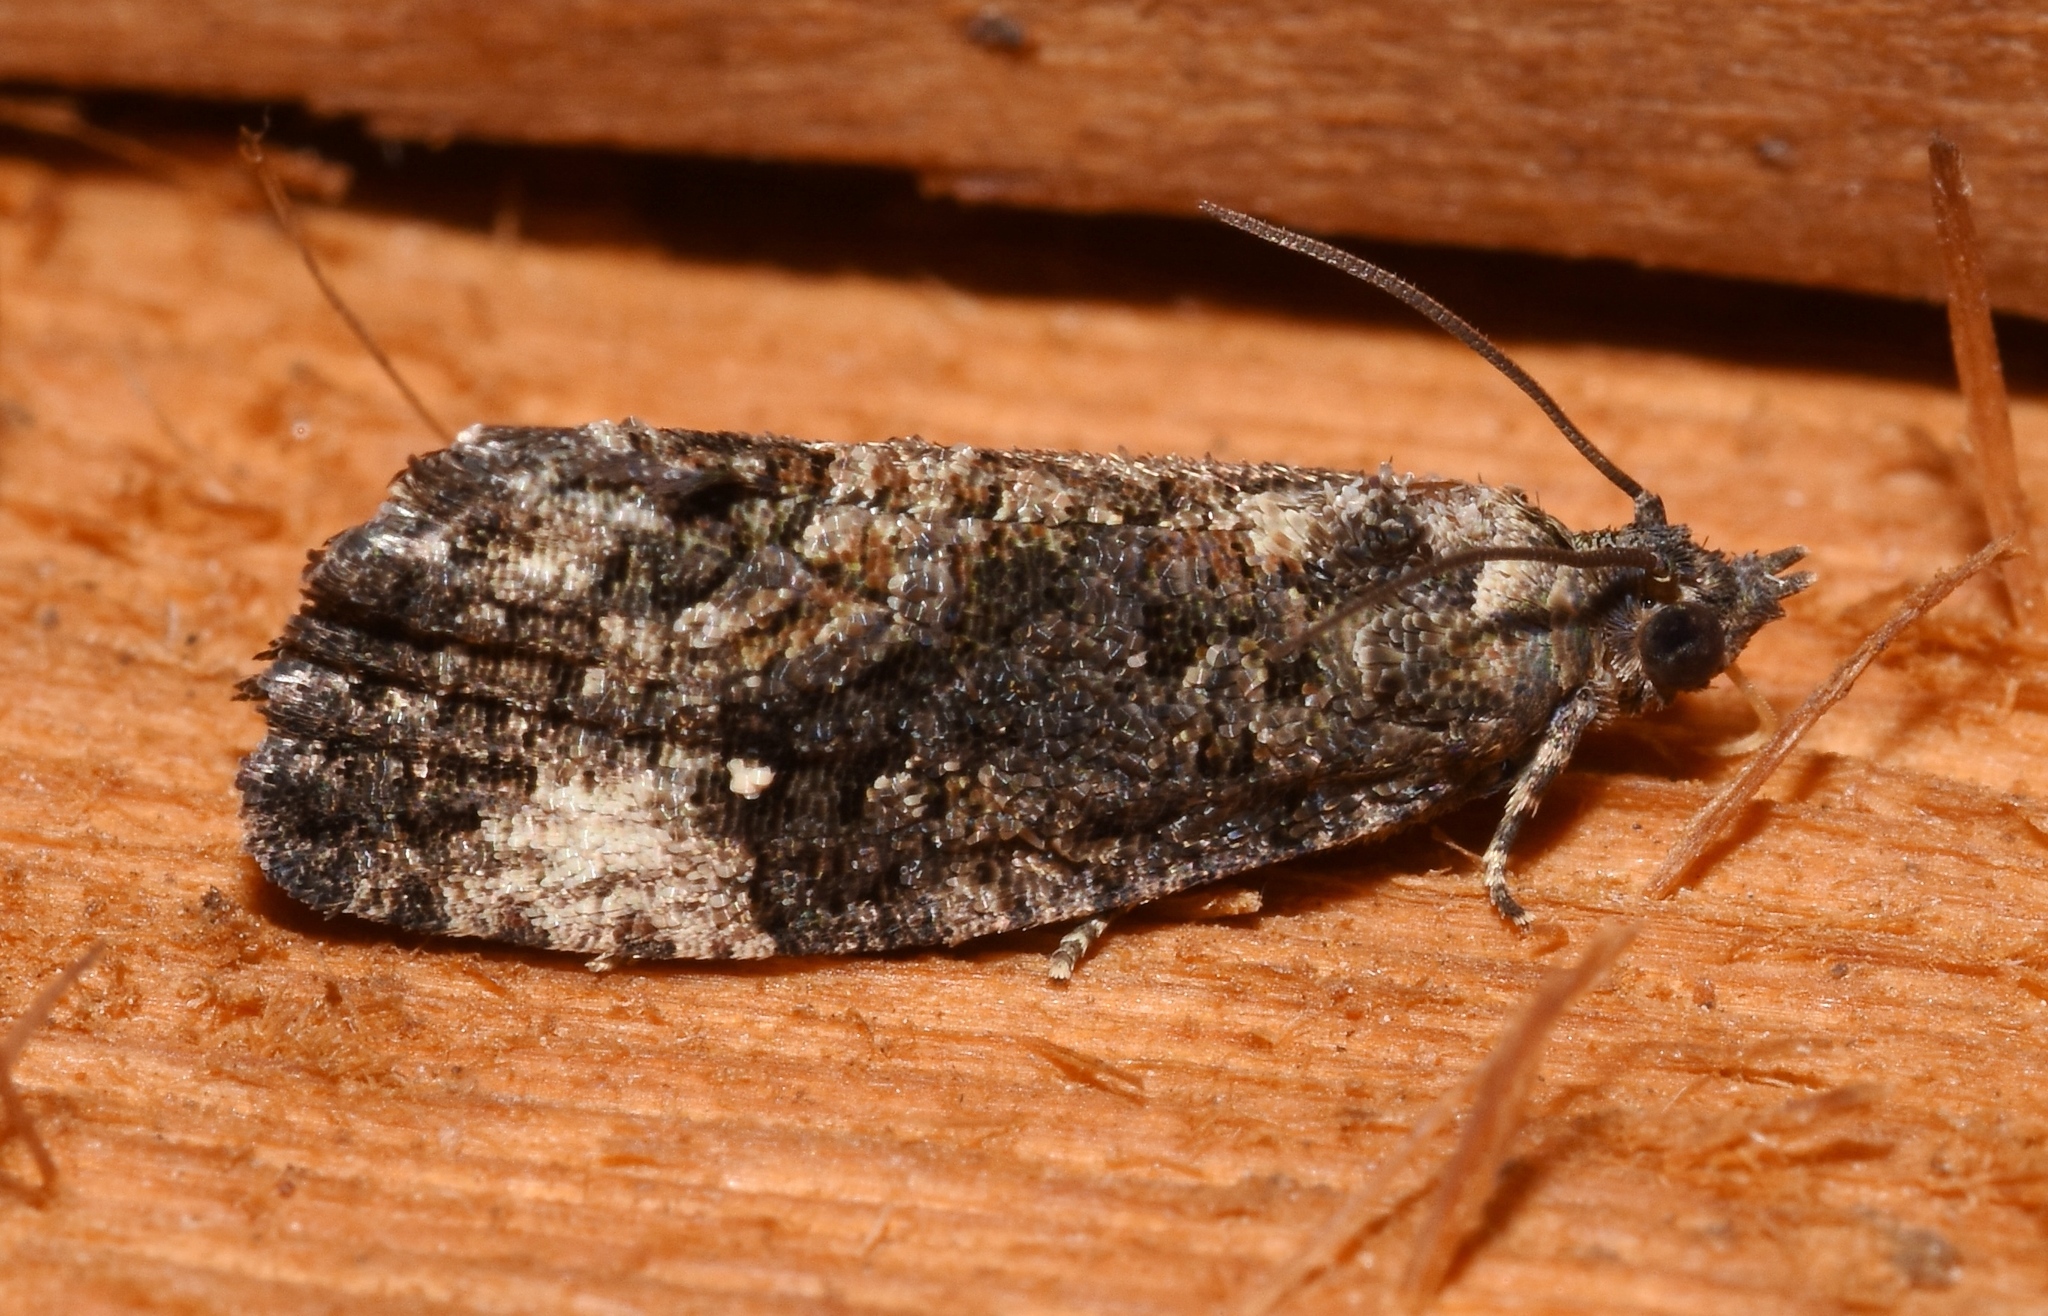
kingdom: Animalia
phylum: Arthropoda
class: Insecta
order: Lepidoptera
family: Tortricidae
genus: Gymnandrosoma
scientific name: Gymnandrosoma punctidiscanum
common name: Dotted ecdytolopha moth
